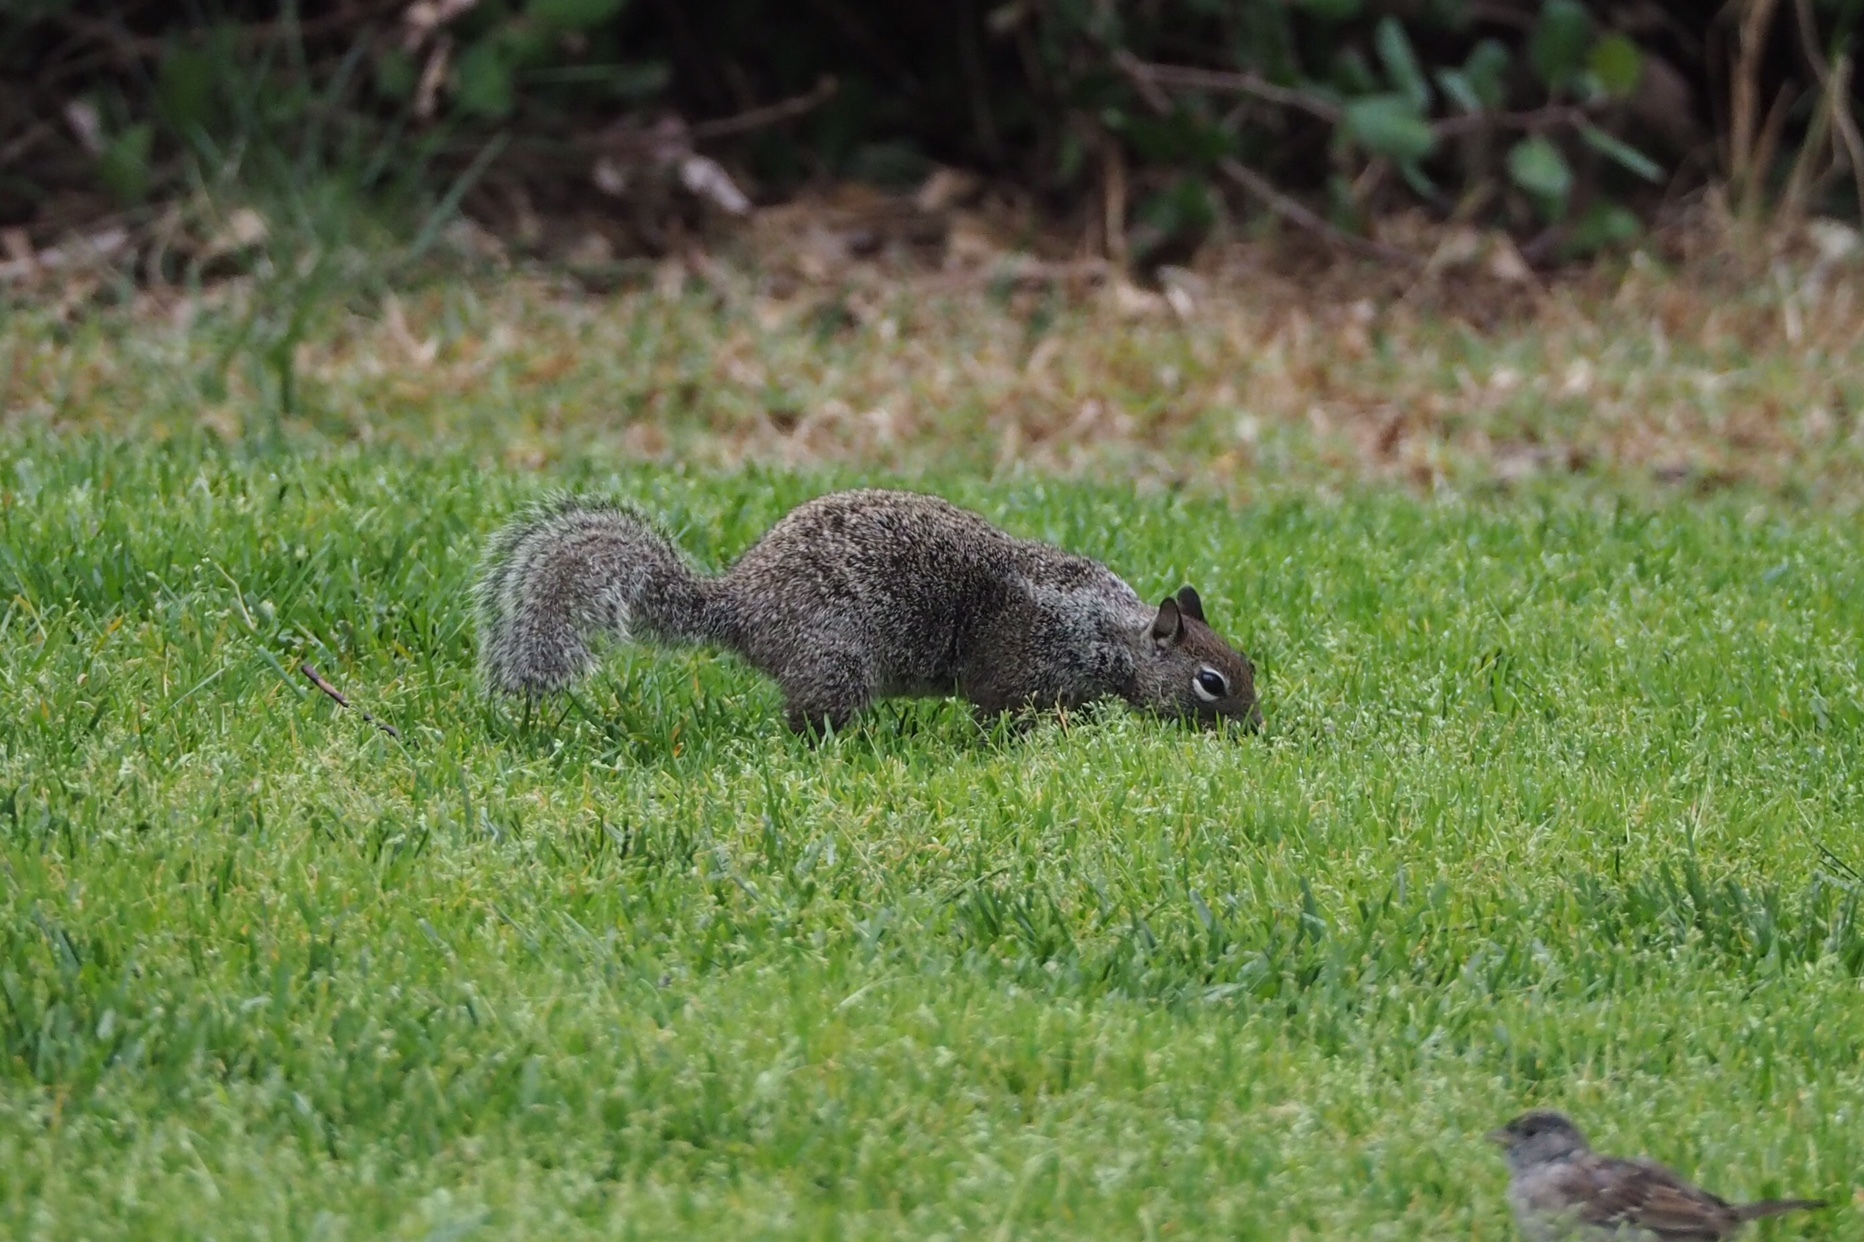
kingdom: Animalia
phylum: Chordata
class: Mammalia
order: Rodentia
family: Sciuridae
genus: Otospermophilus
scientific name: Otospermophilus beecheyi
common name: California ground squirrel
